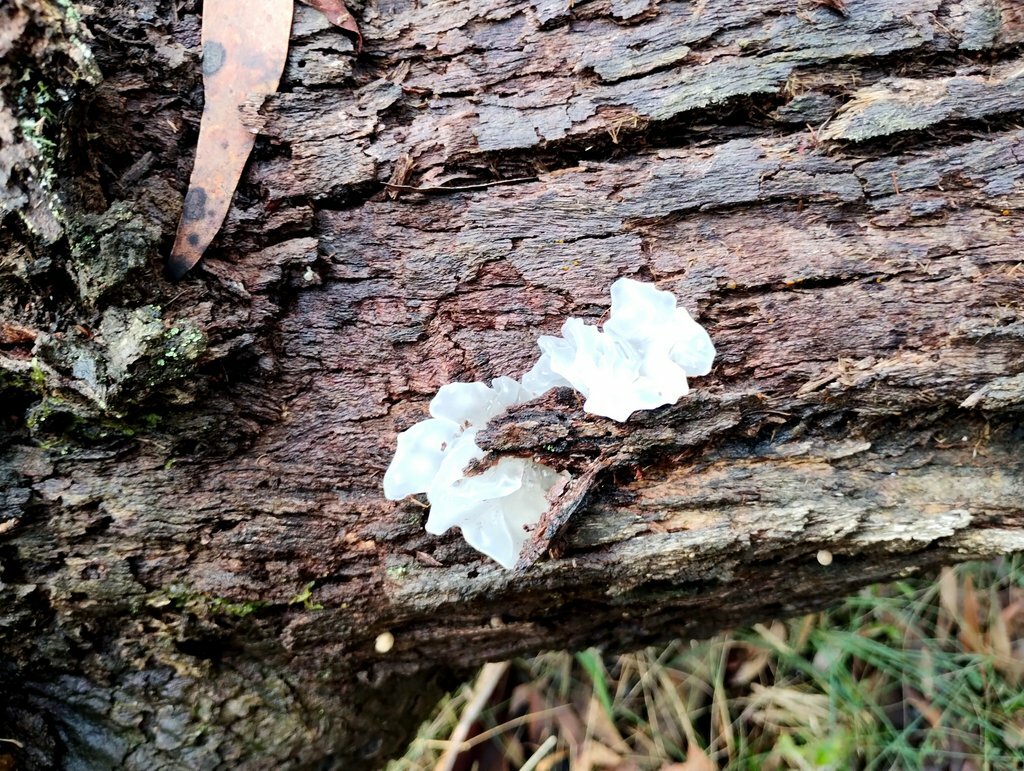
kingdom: Fungi
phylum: Basidiomycota
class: Tremellomycetes
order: Tremellales
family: Tremellaceae
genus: Tremella
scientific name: Tremella fuciformis
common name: Snow fungus
